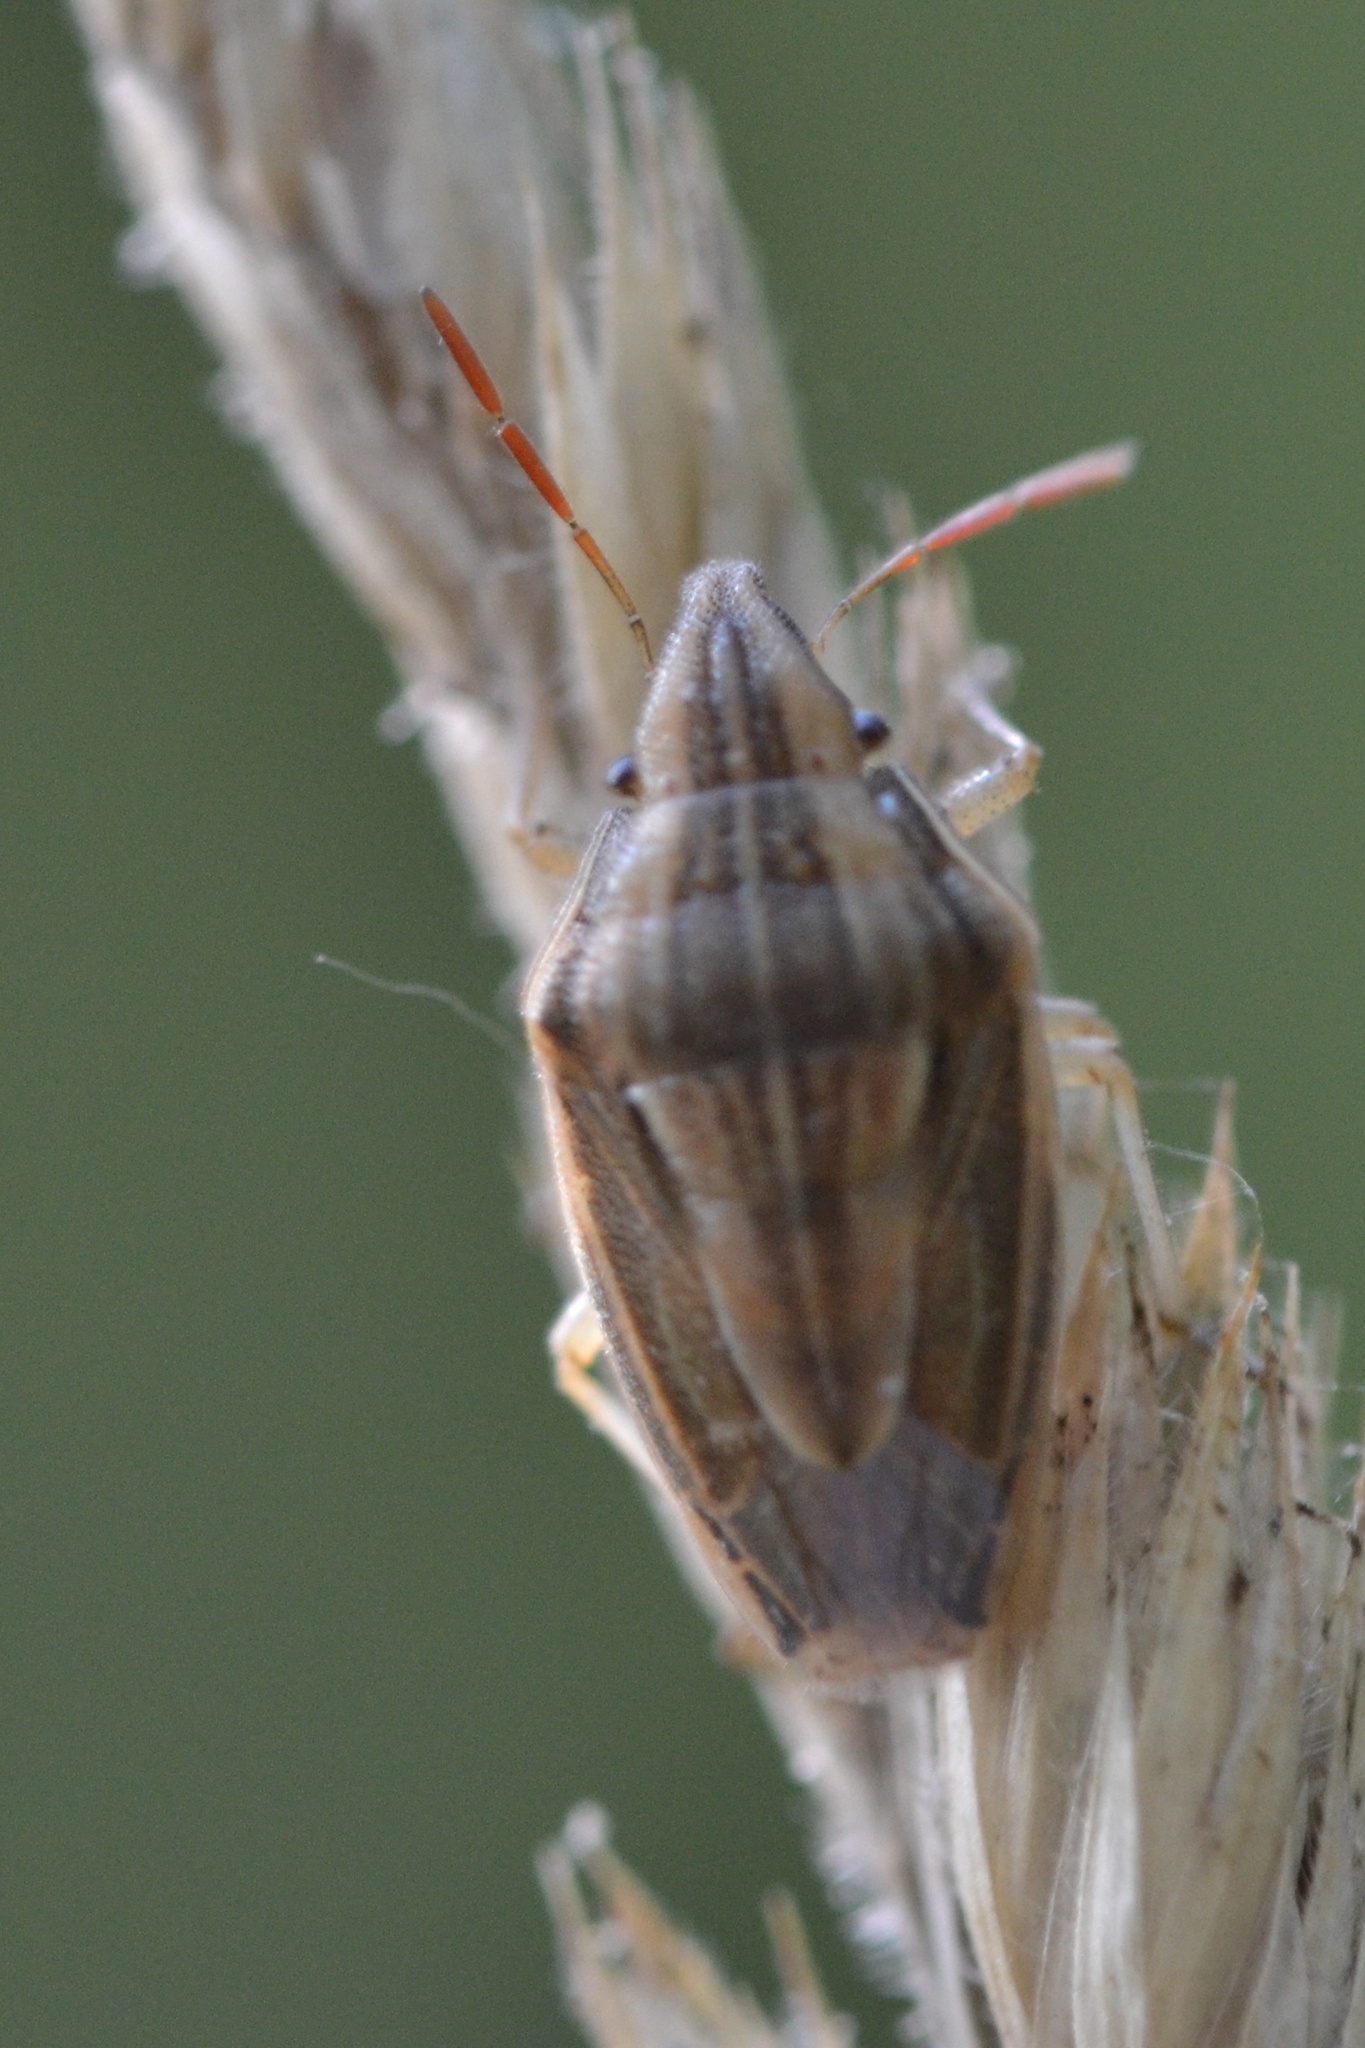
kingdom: Animalia
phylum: Arthropoda
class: Insecta
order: Hemiptera
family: Pentatomidae
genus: Aelia
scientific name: Aelia acuminata
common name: Bishop's mitre
